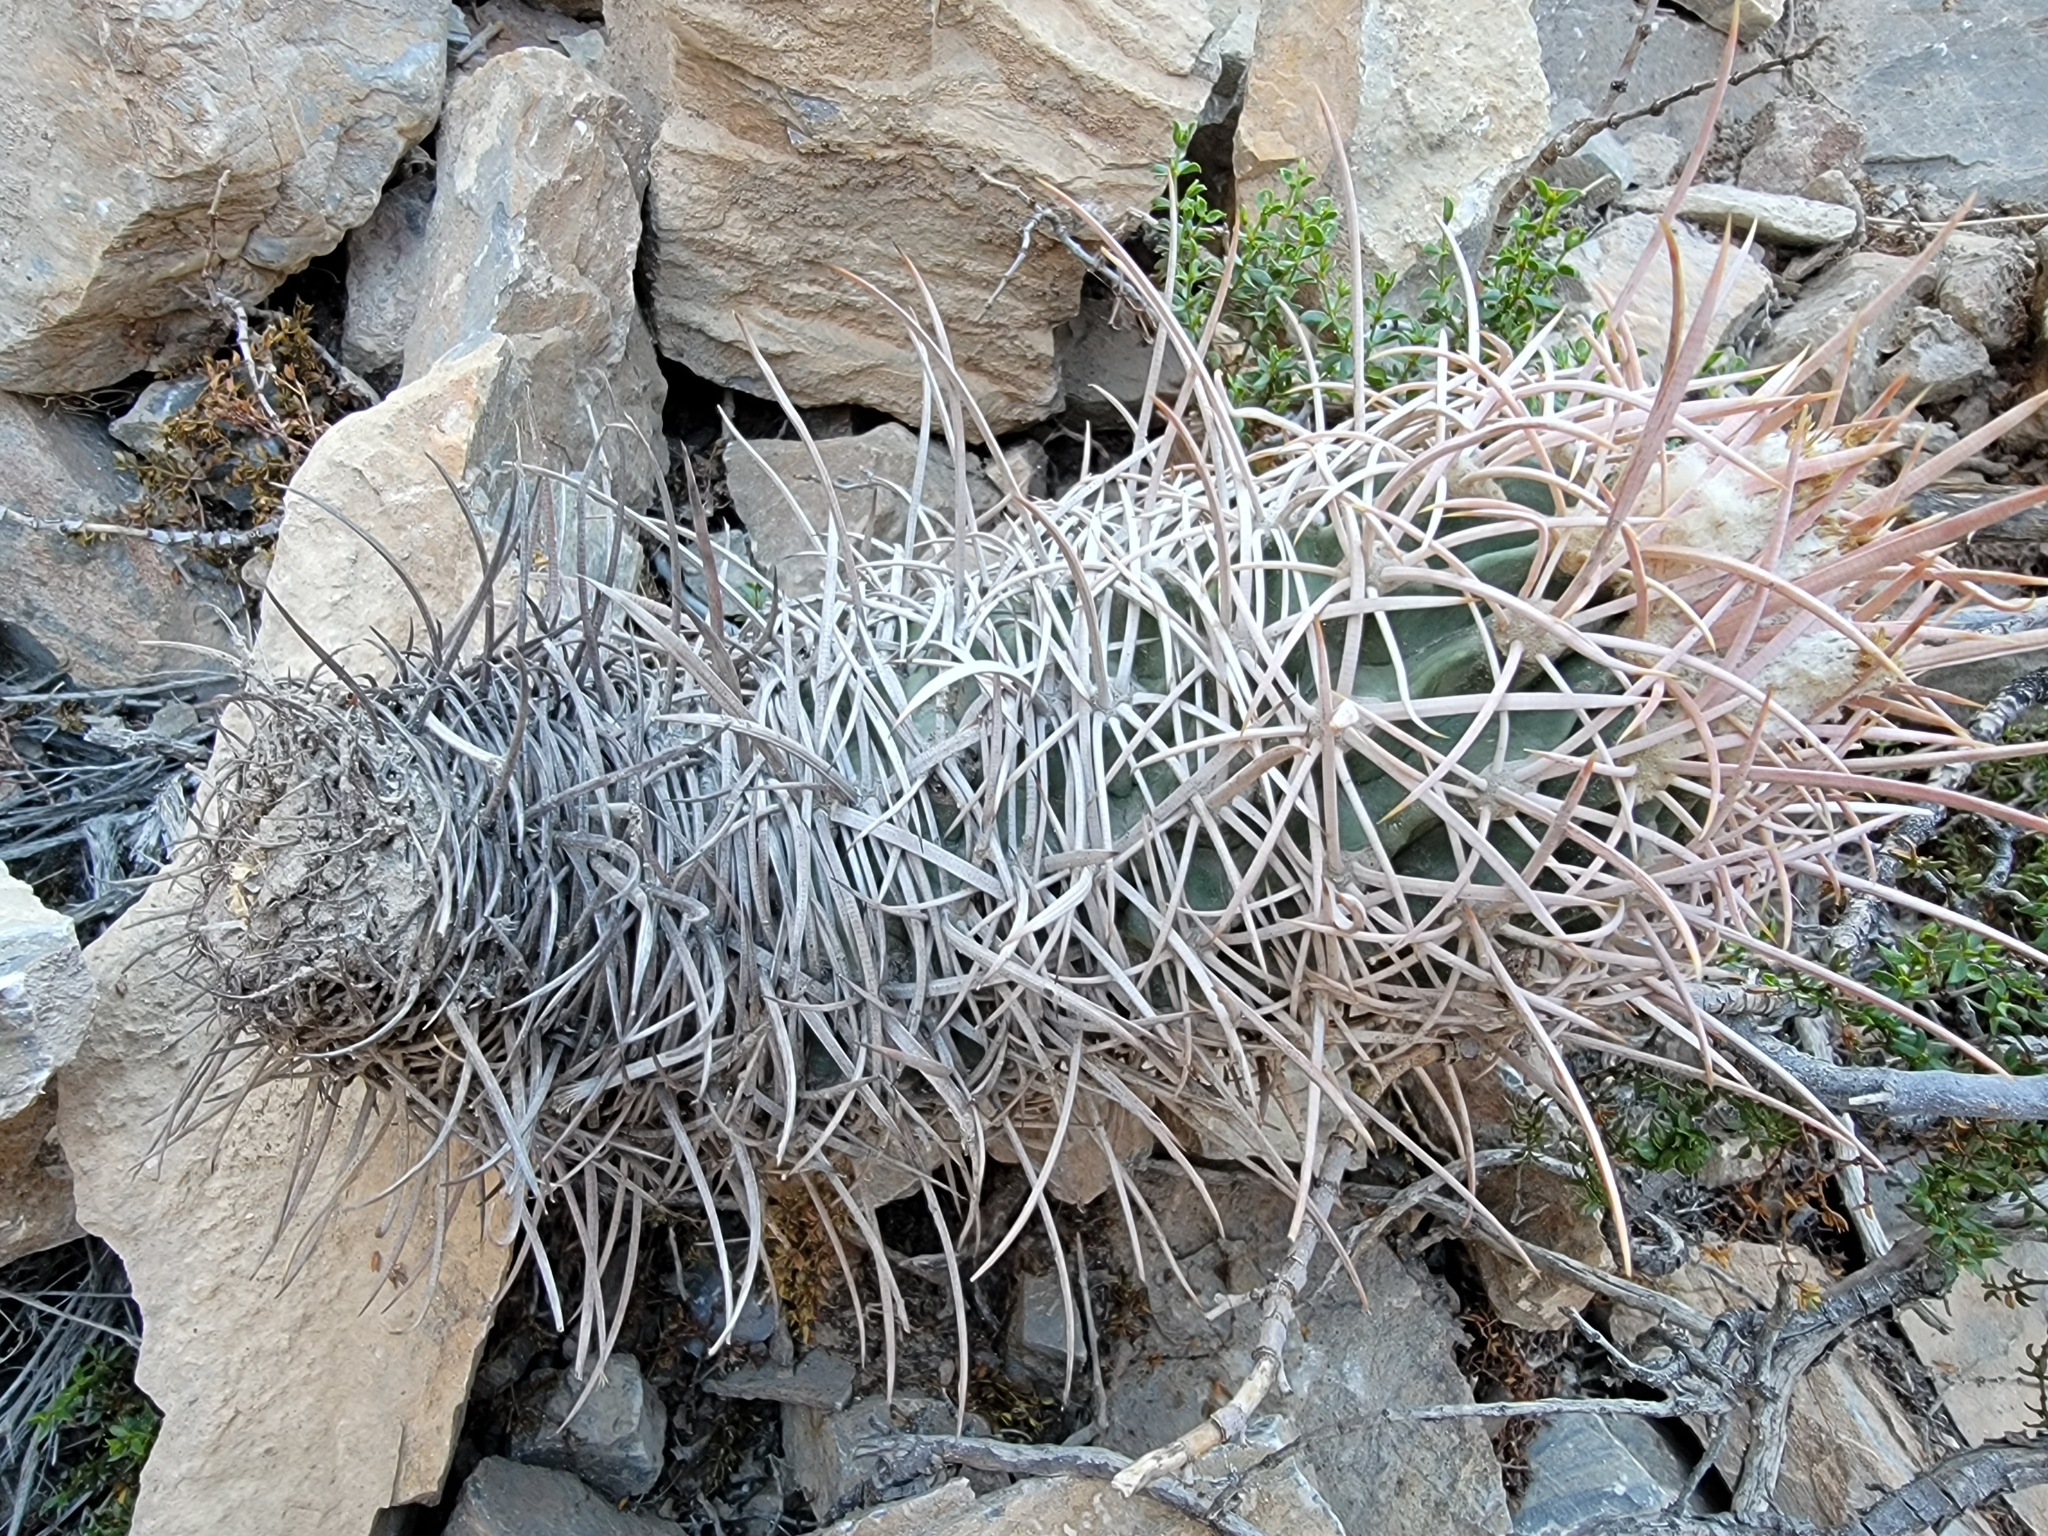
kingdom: Plantae
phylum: Tracheophyta
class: Magnoliopsida
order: Caryophyllales
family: Cactaceae
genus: Echinocactus
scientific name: Echinocactus polycephalus
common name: Cottontop cactus
